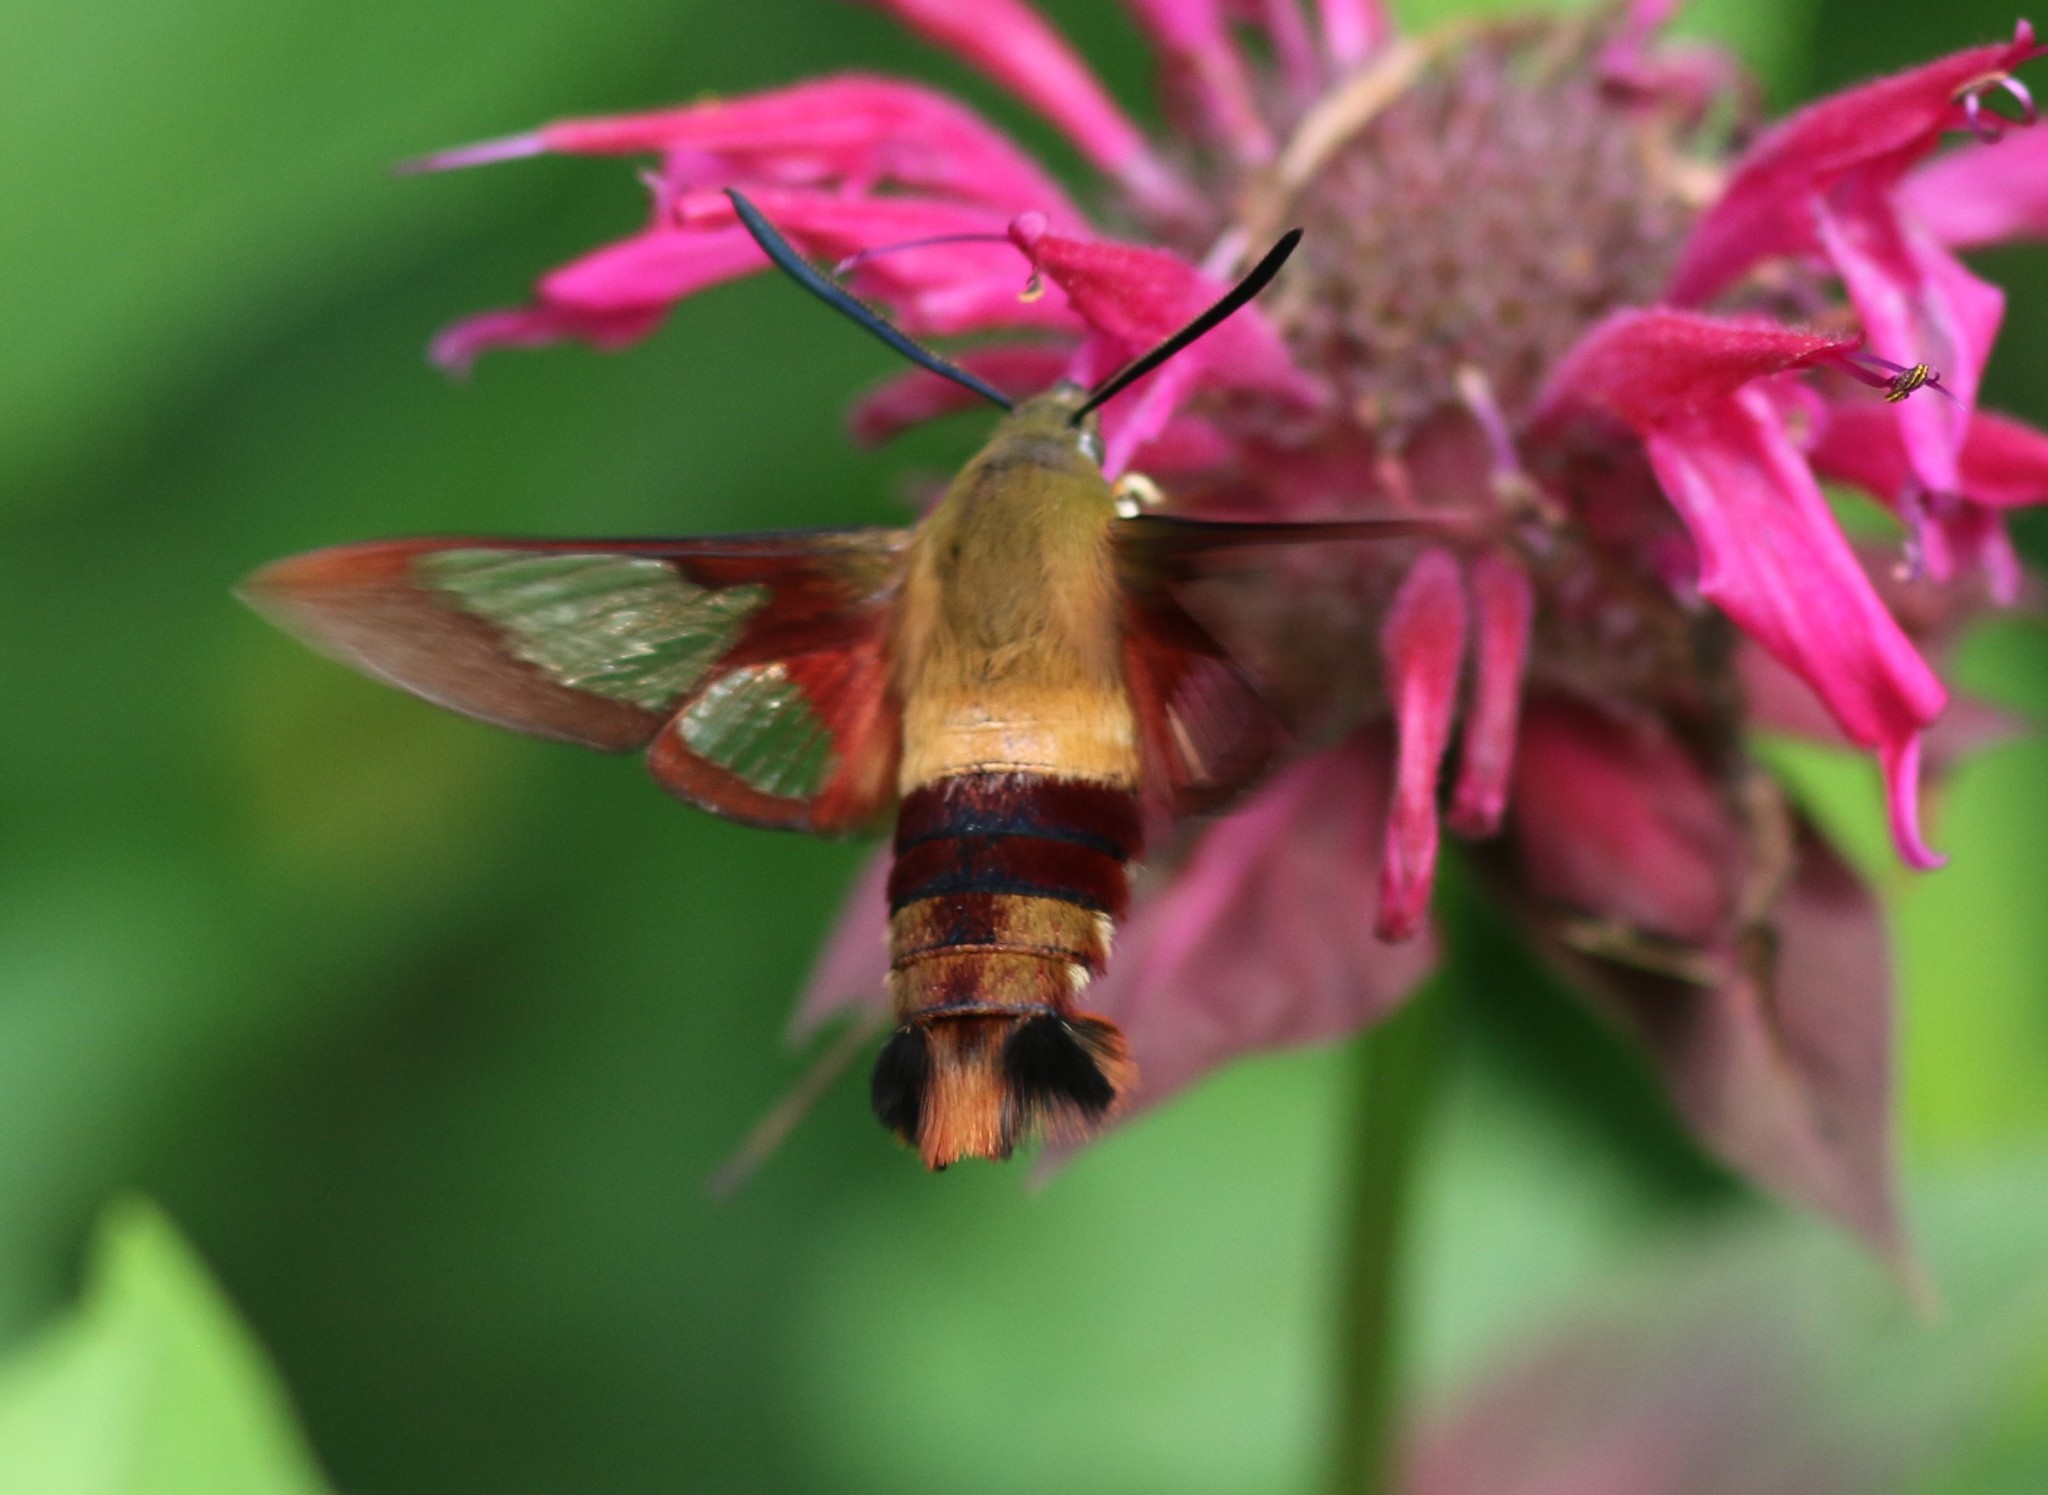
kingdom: Animalia
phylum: Arthropoda
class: Insecta
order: Lepidoptera
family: Sphingidae
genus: Hemaris
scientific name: Hemaris thysbe
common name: Common clear-wing
